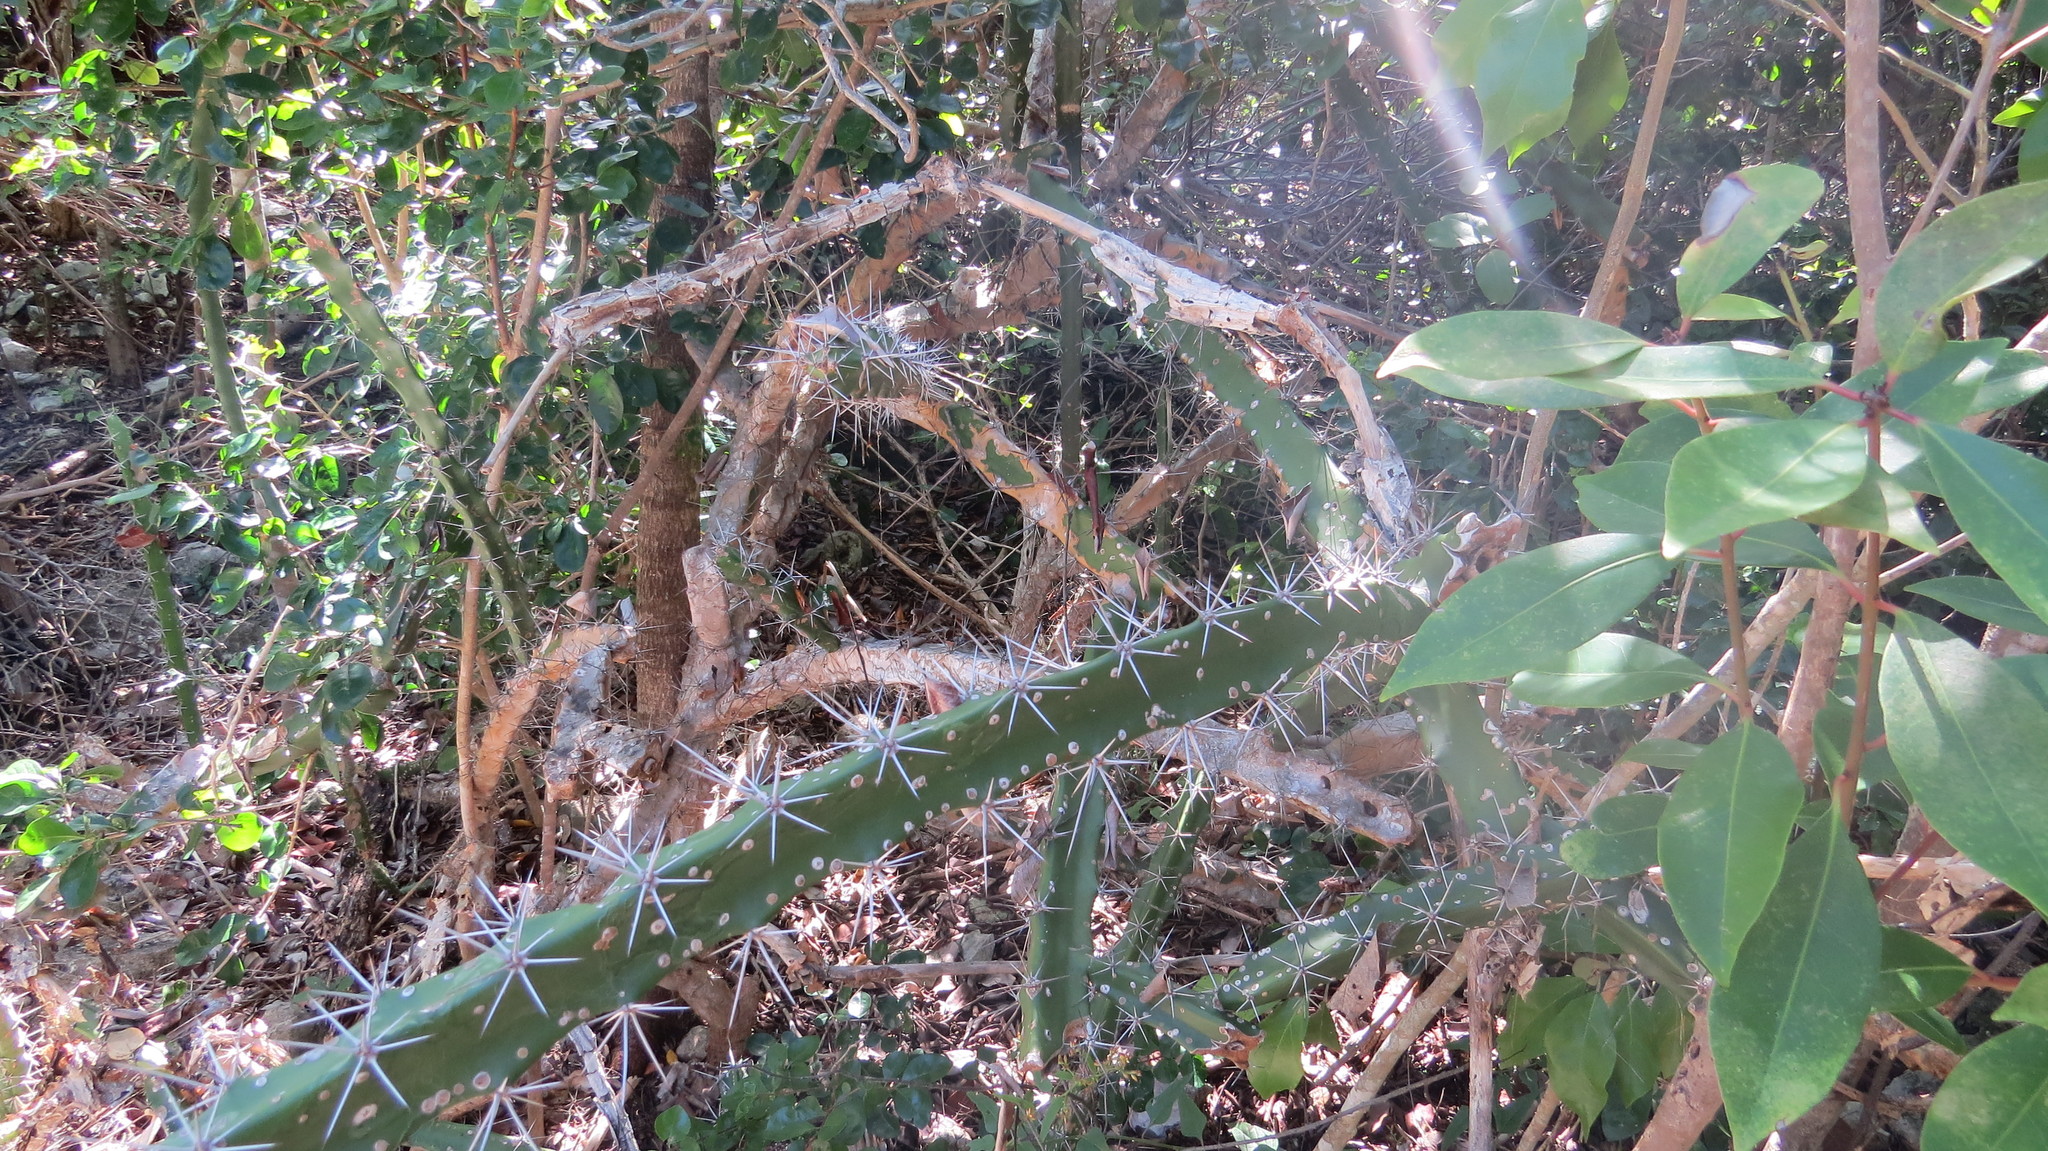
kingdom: Plantae
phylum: Tracheophyta
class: Magnoliopsida
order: Caryophyllales
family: Cactaceae
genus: Acanthocereus
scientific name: Acanthocereus tetragonus
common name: Triangle cactus
